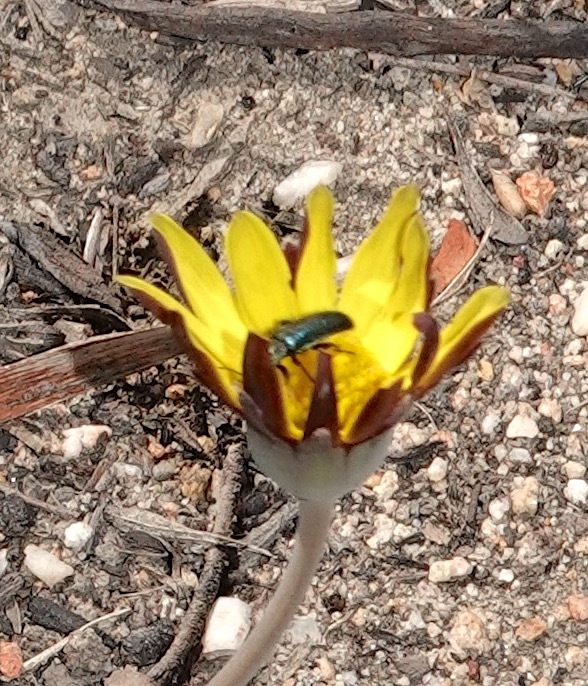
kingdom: Plantae
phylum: Tracheophyta
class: Magnoliopsida
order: Asterales
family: Asteraceae
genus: Othonna
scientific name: Othonna hederifolia
